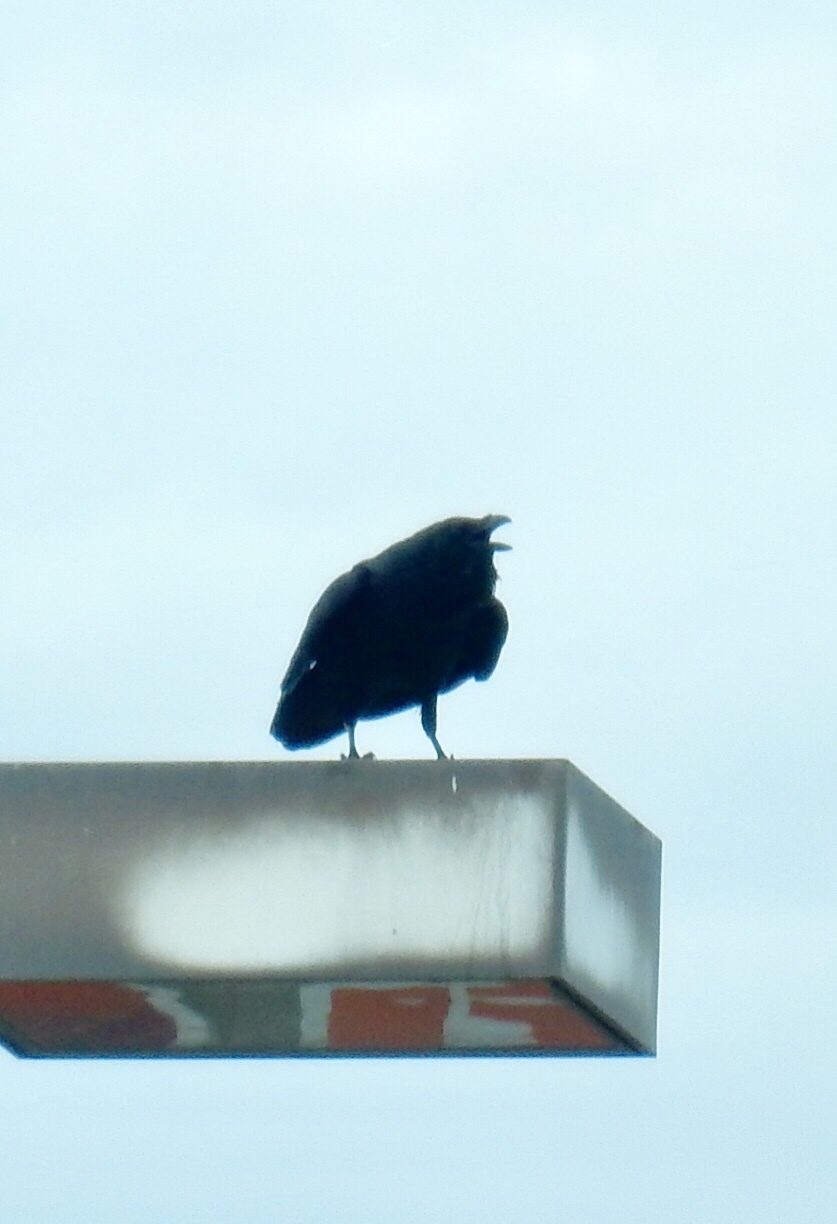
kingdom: Animalia
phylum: Chordata
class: Aves
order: Passeriformes
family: Corvidae
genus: Corvus
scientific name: Corvus corax
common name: Common raven
